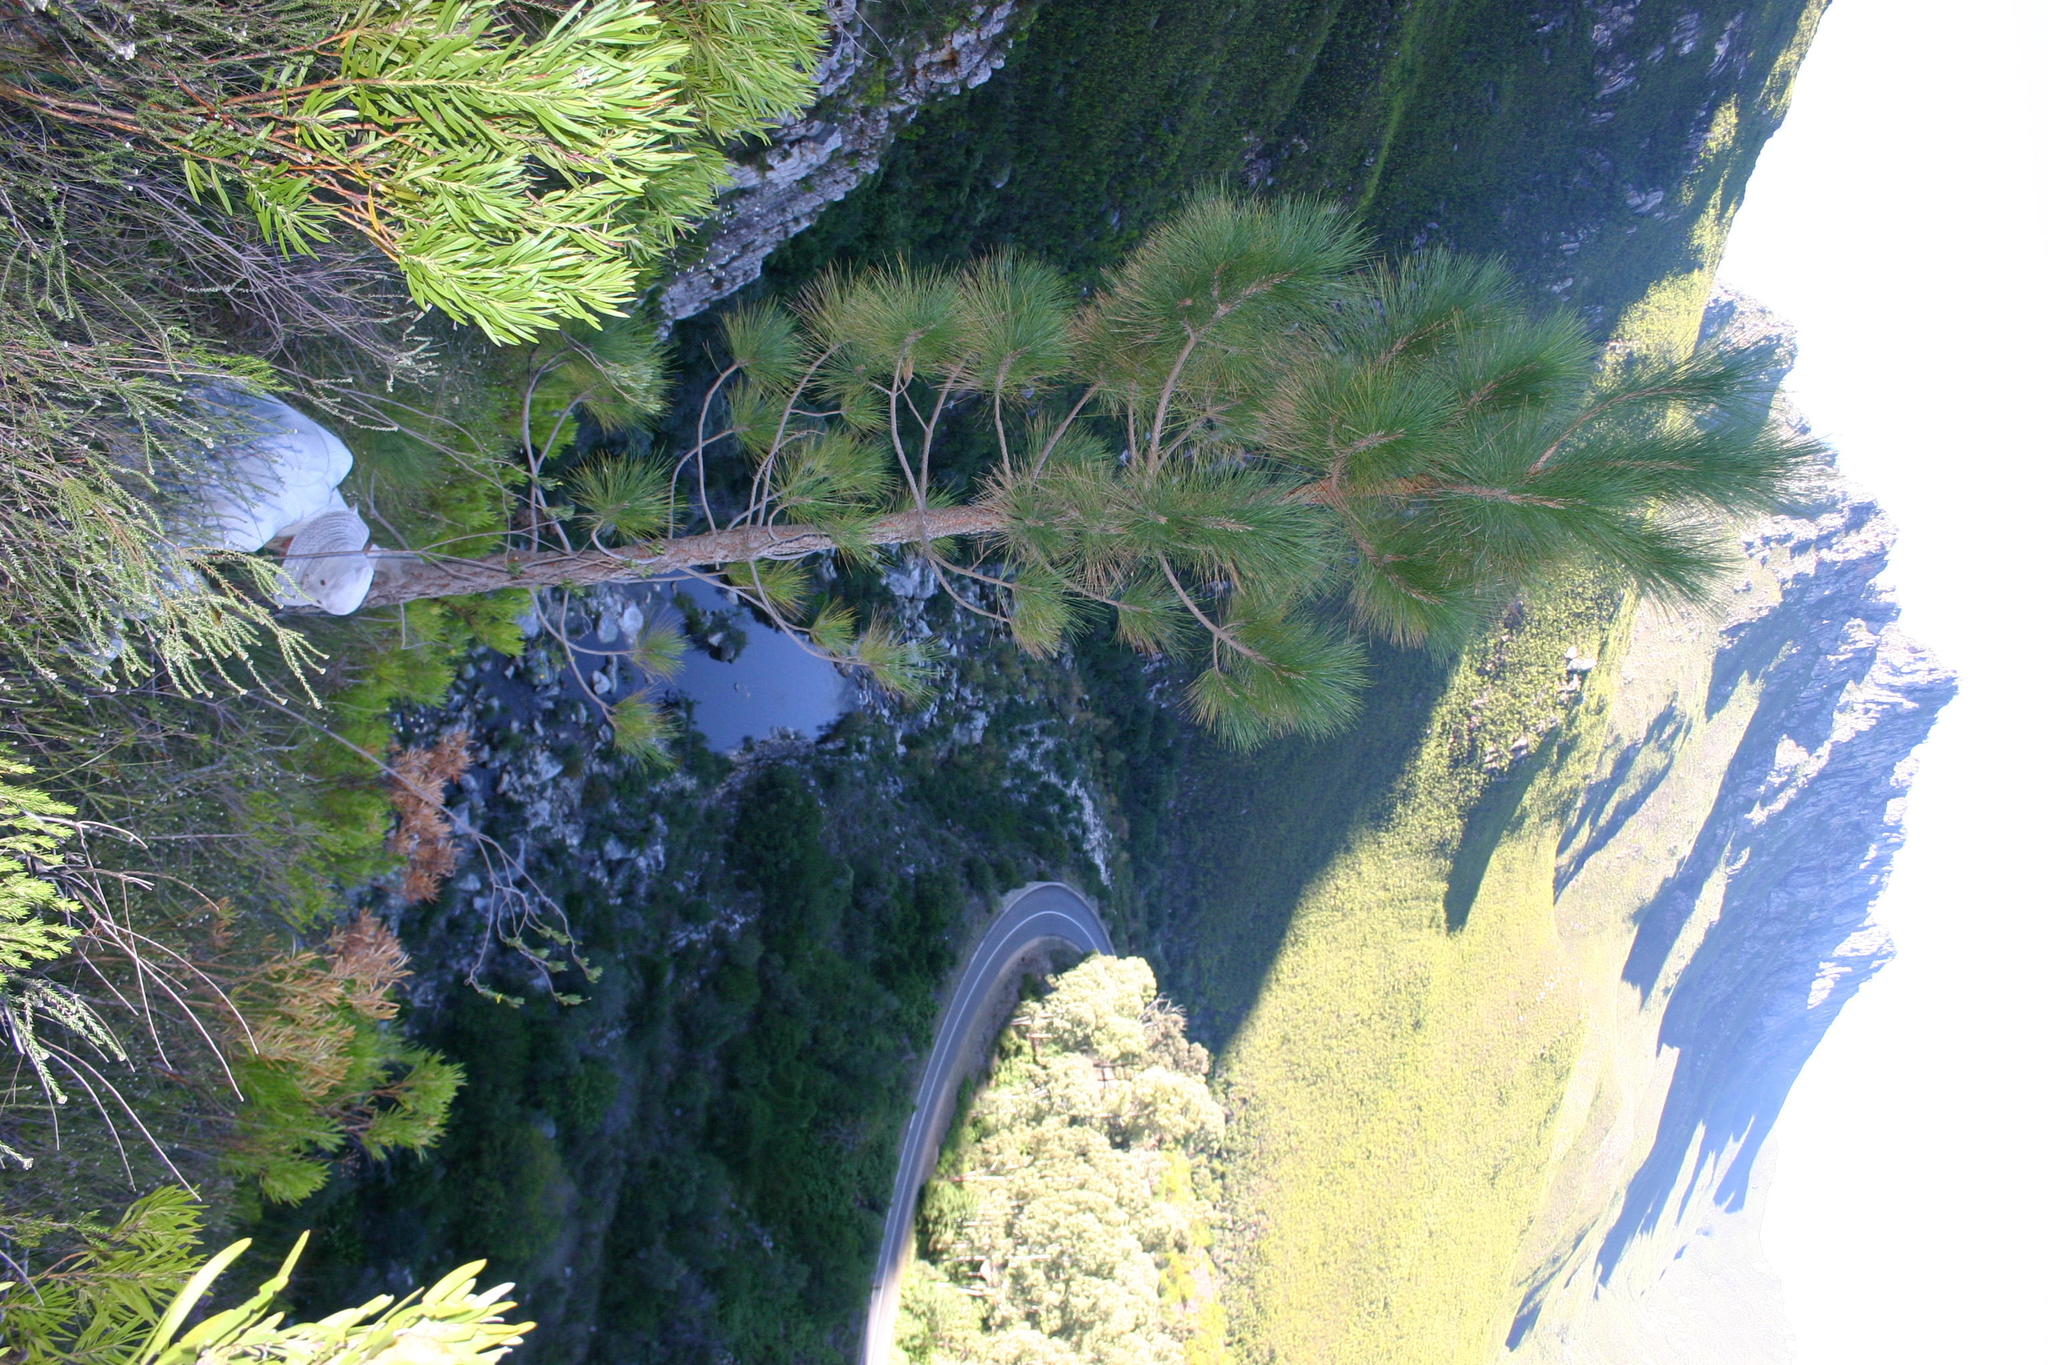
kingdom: Plantae
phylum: Tracheophyta
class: Pinopsida
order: Pinales
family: Pinaceae
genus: Pinus
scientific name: Pinus canariensis
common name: Canary islands pine
